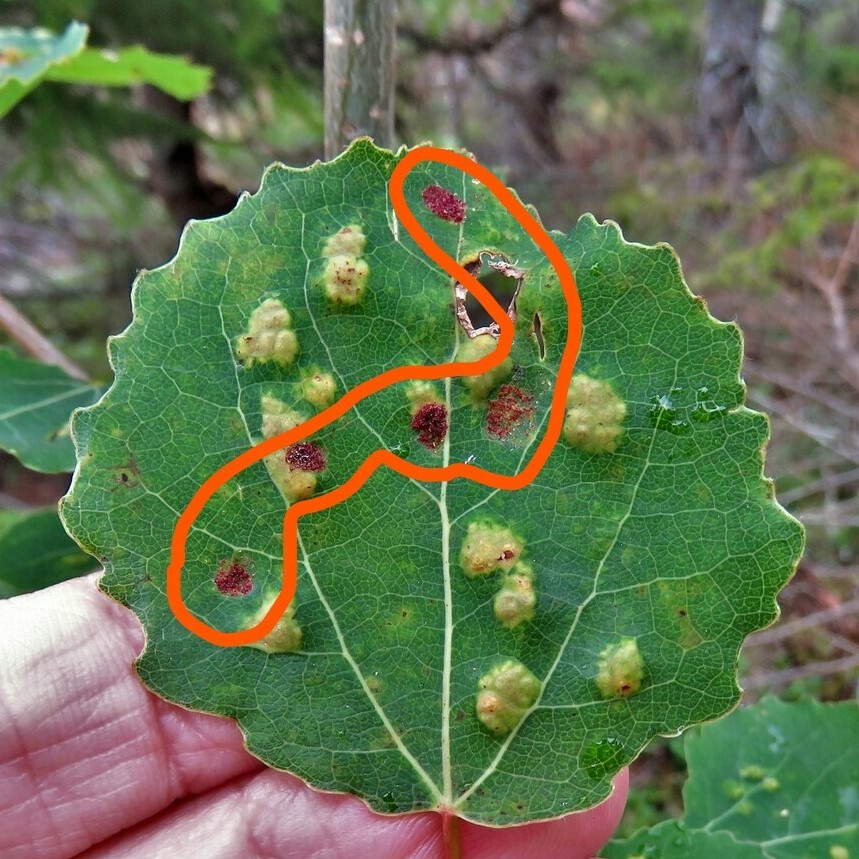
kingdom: Animalia
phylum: Arthropoda
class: Arachnida
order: Trombidiformes
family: Eriophyidae
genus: Aceria
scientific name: Aceria varia
